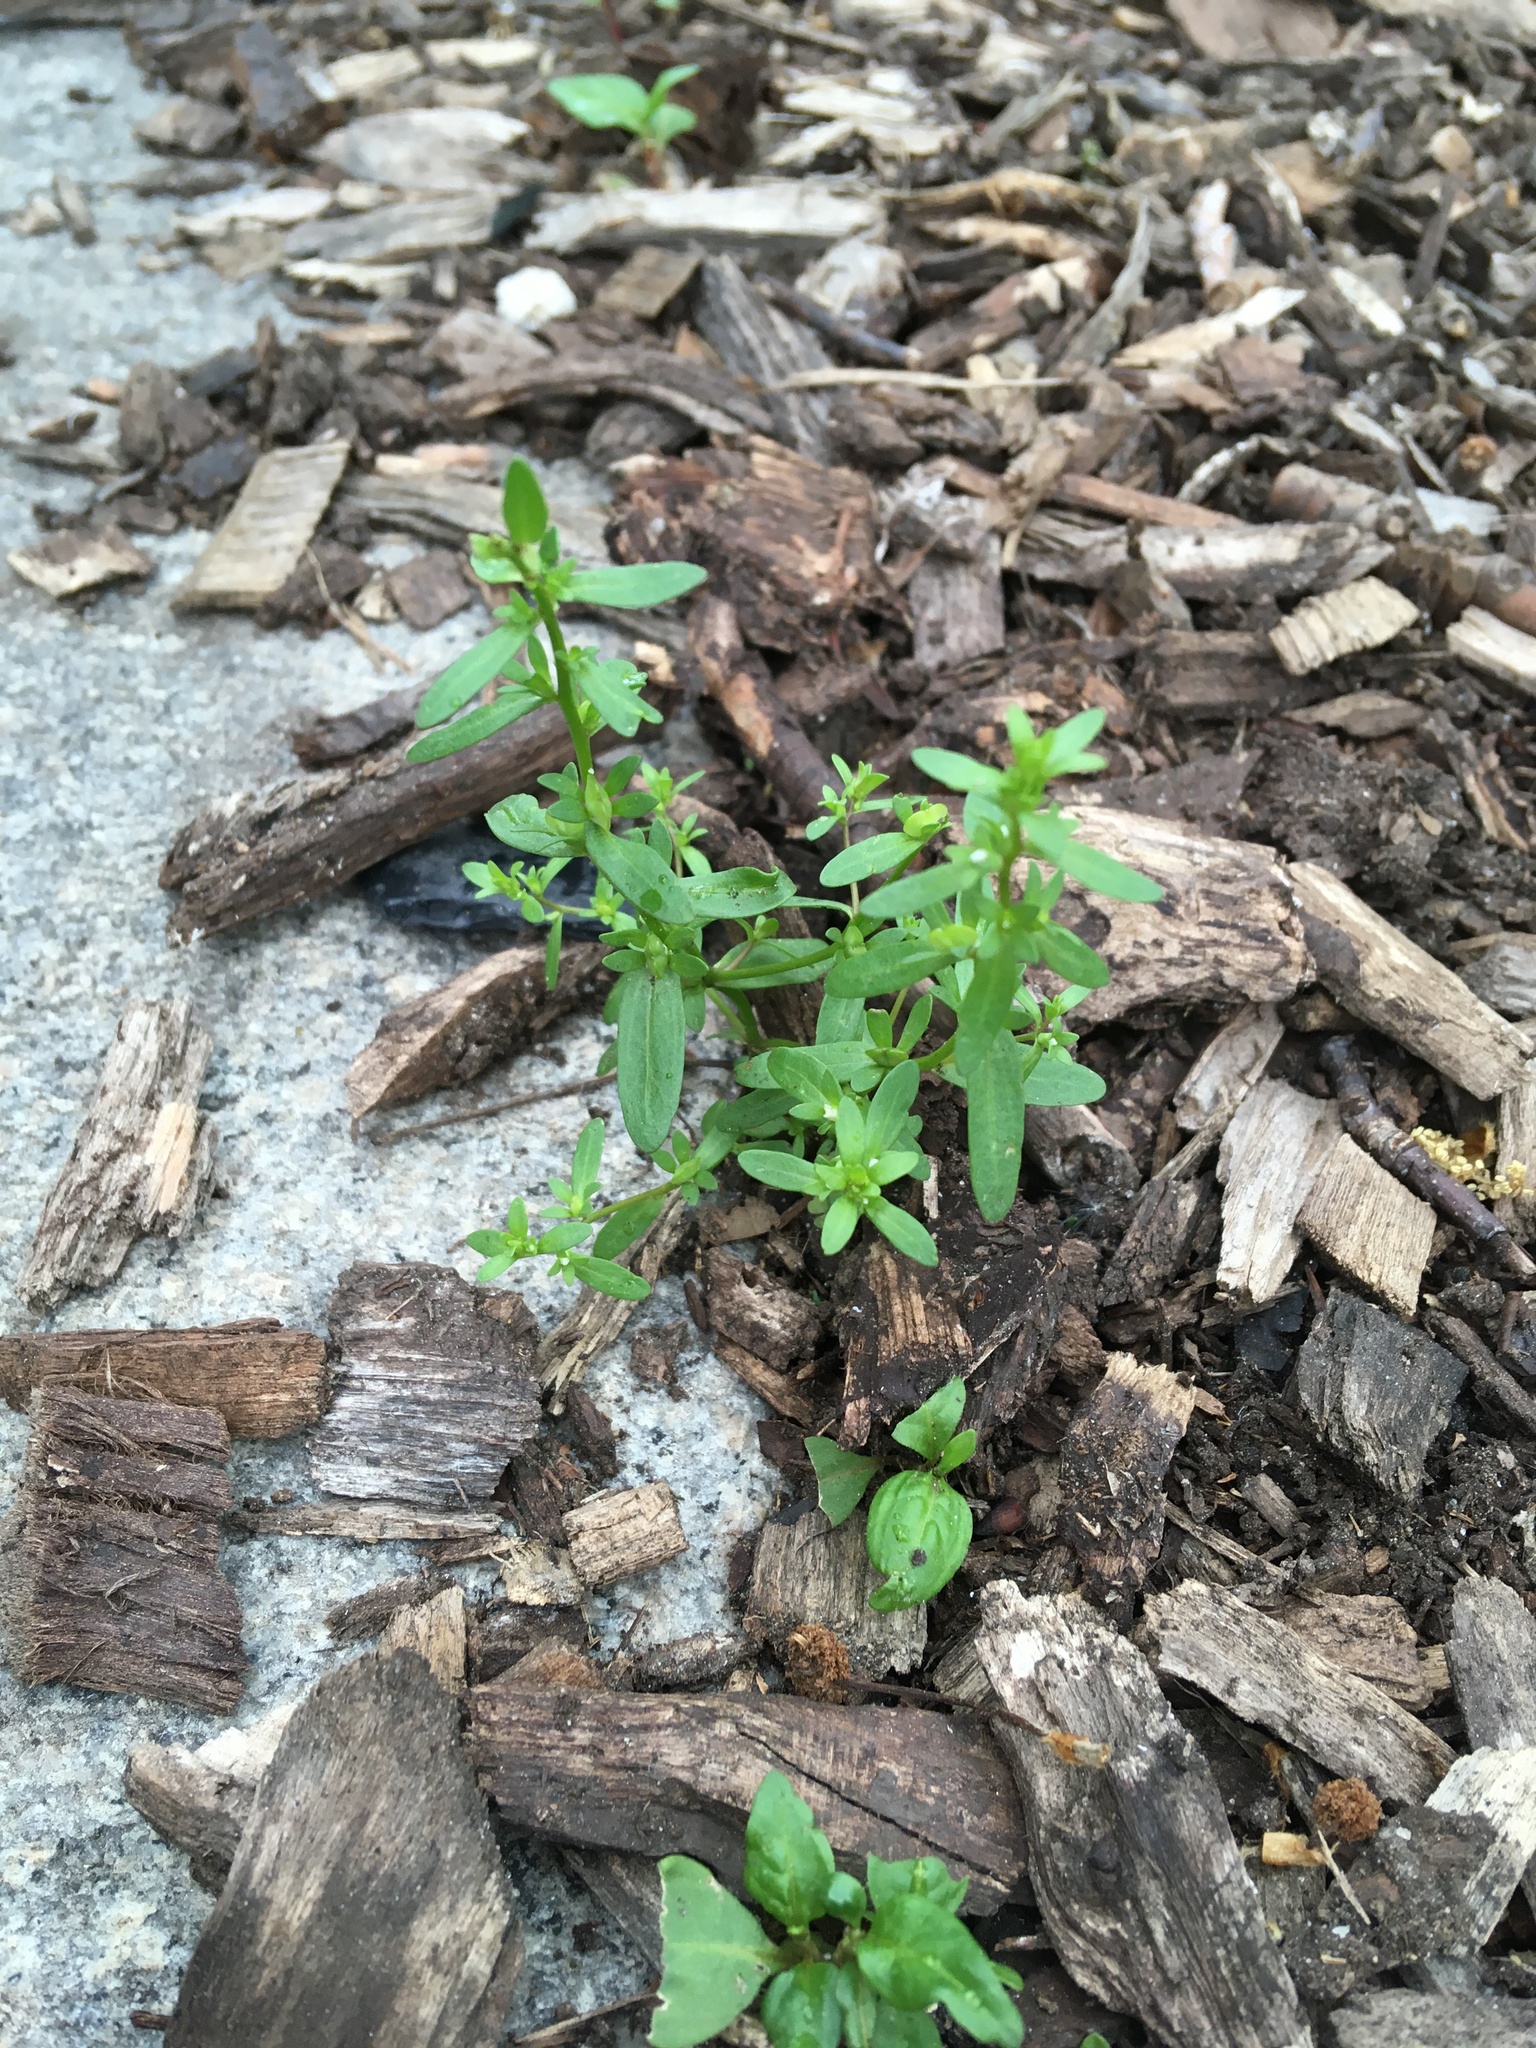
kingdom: Plantae
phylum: Tracheophyta
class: Magnoliopsida
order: Lamiales
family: Plantaginaceae
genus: Veronica
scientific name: Veronica peregrina
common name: Neckweed
